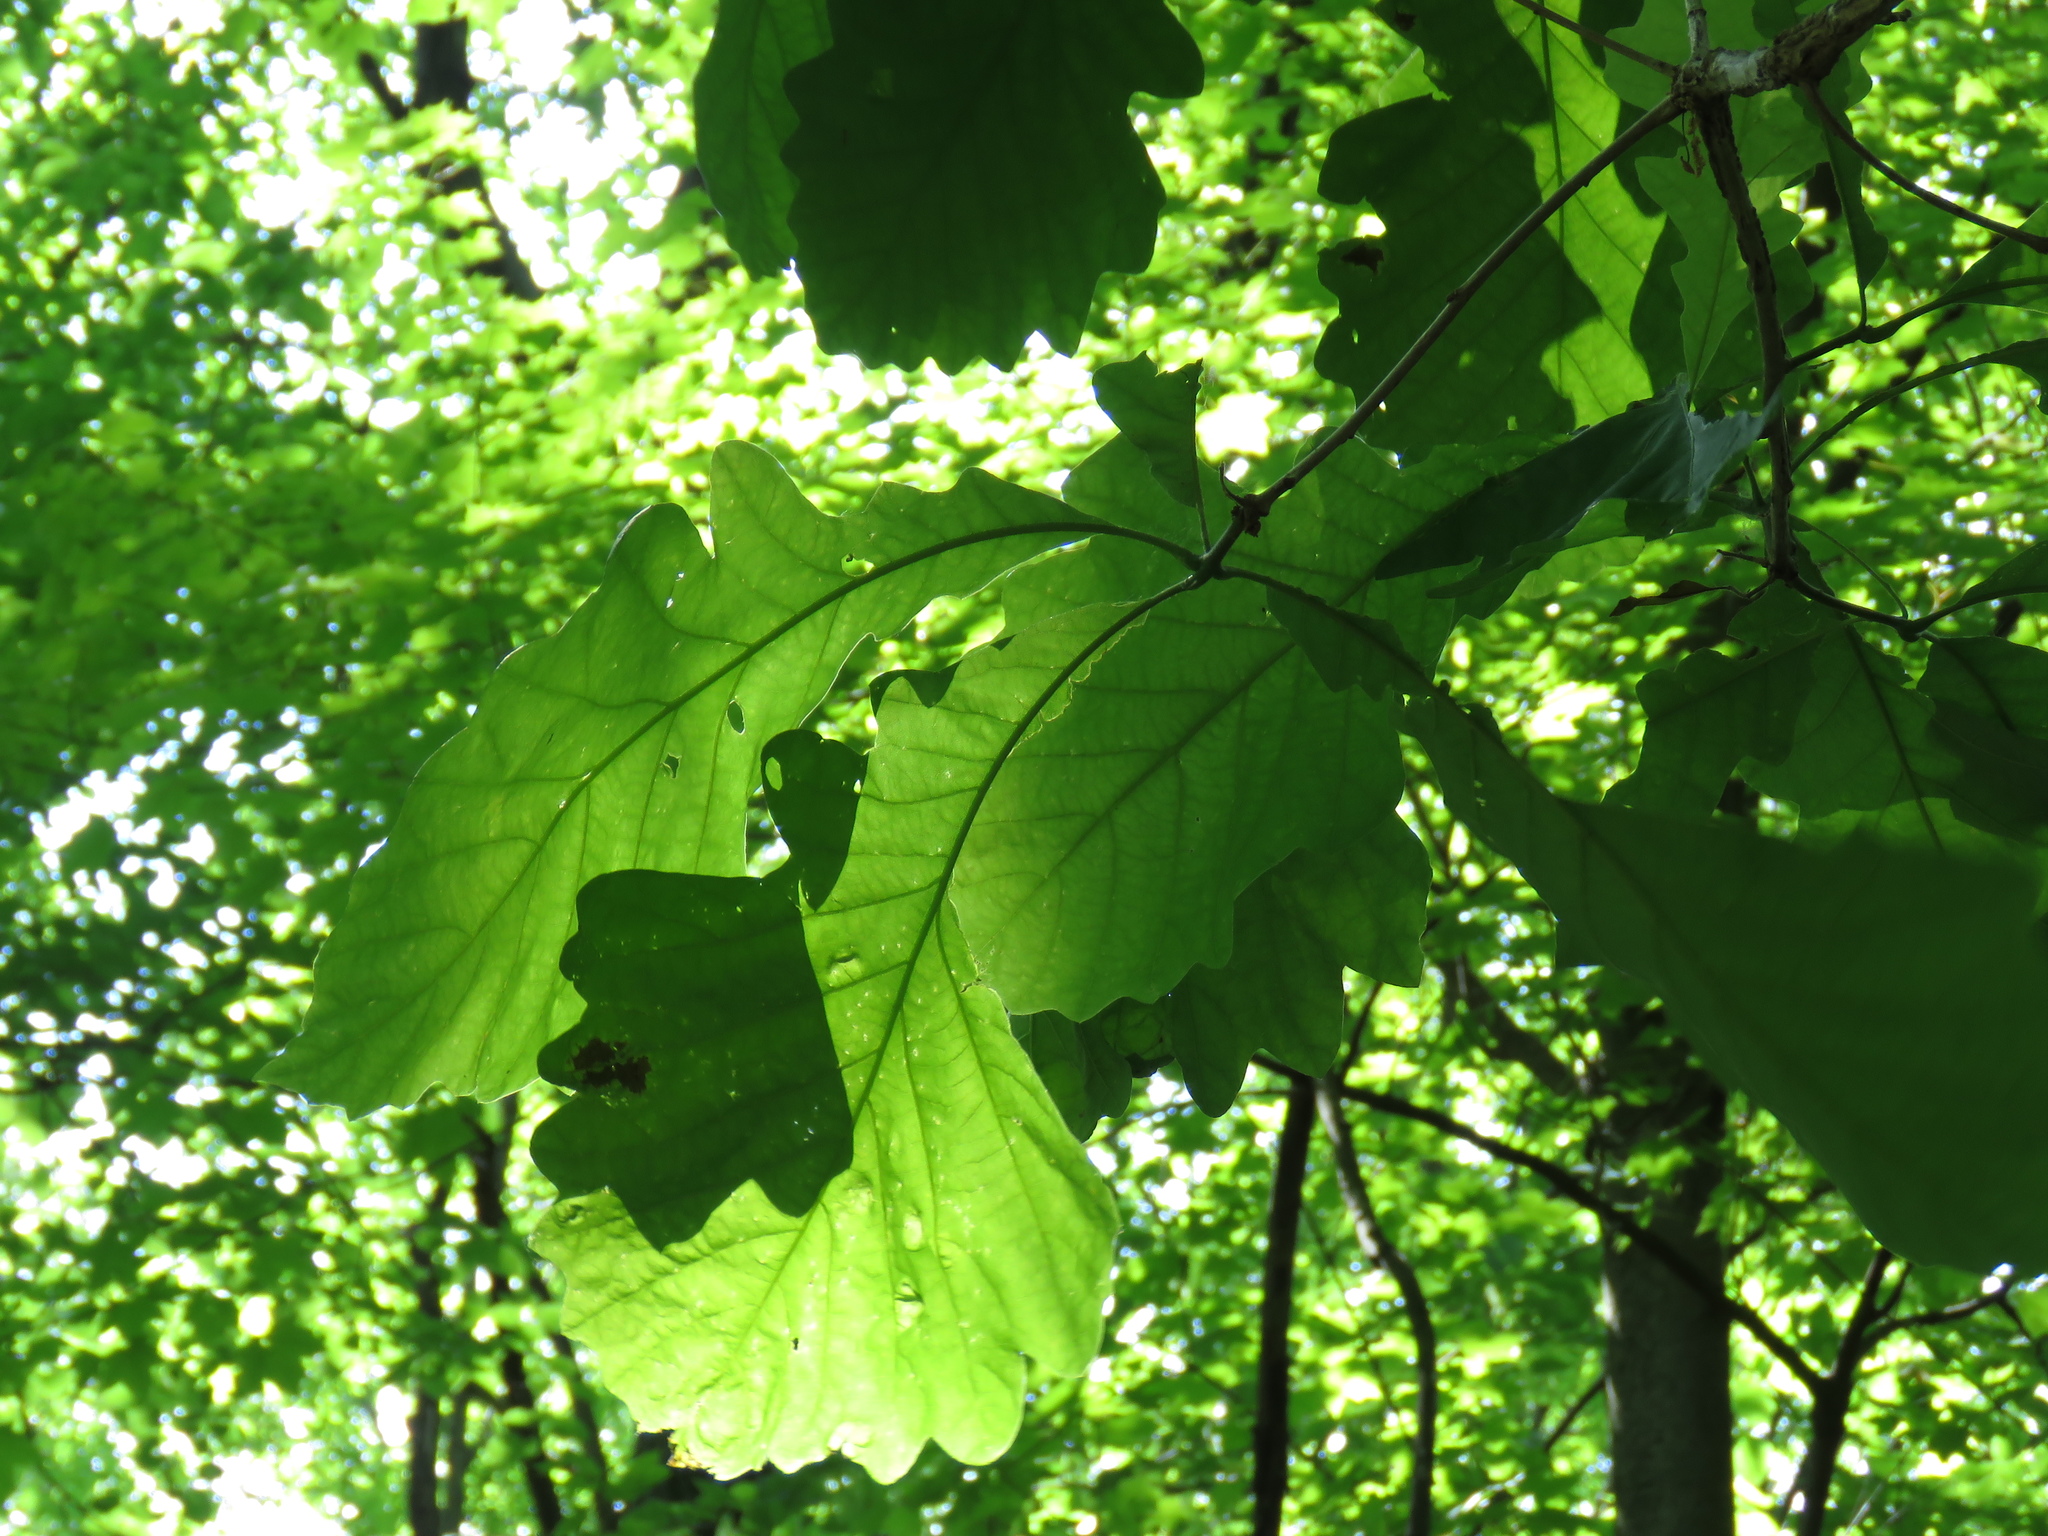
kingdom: Plantae
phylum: Tracheophyta
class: Magnoliopsida
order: Fagales
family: Fagaceae
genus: Quercus
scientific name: Quercus bicolor
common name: Swamp white oak
